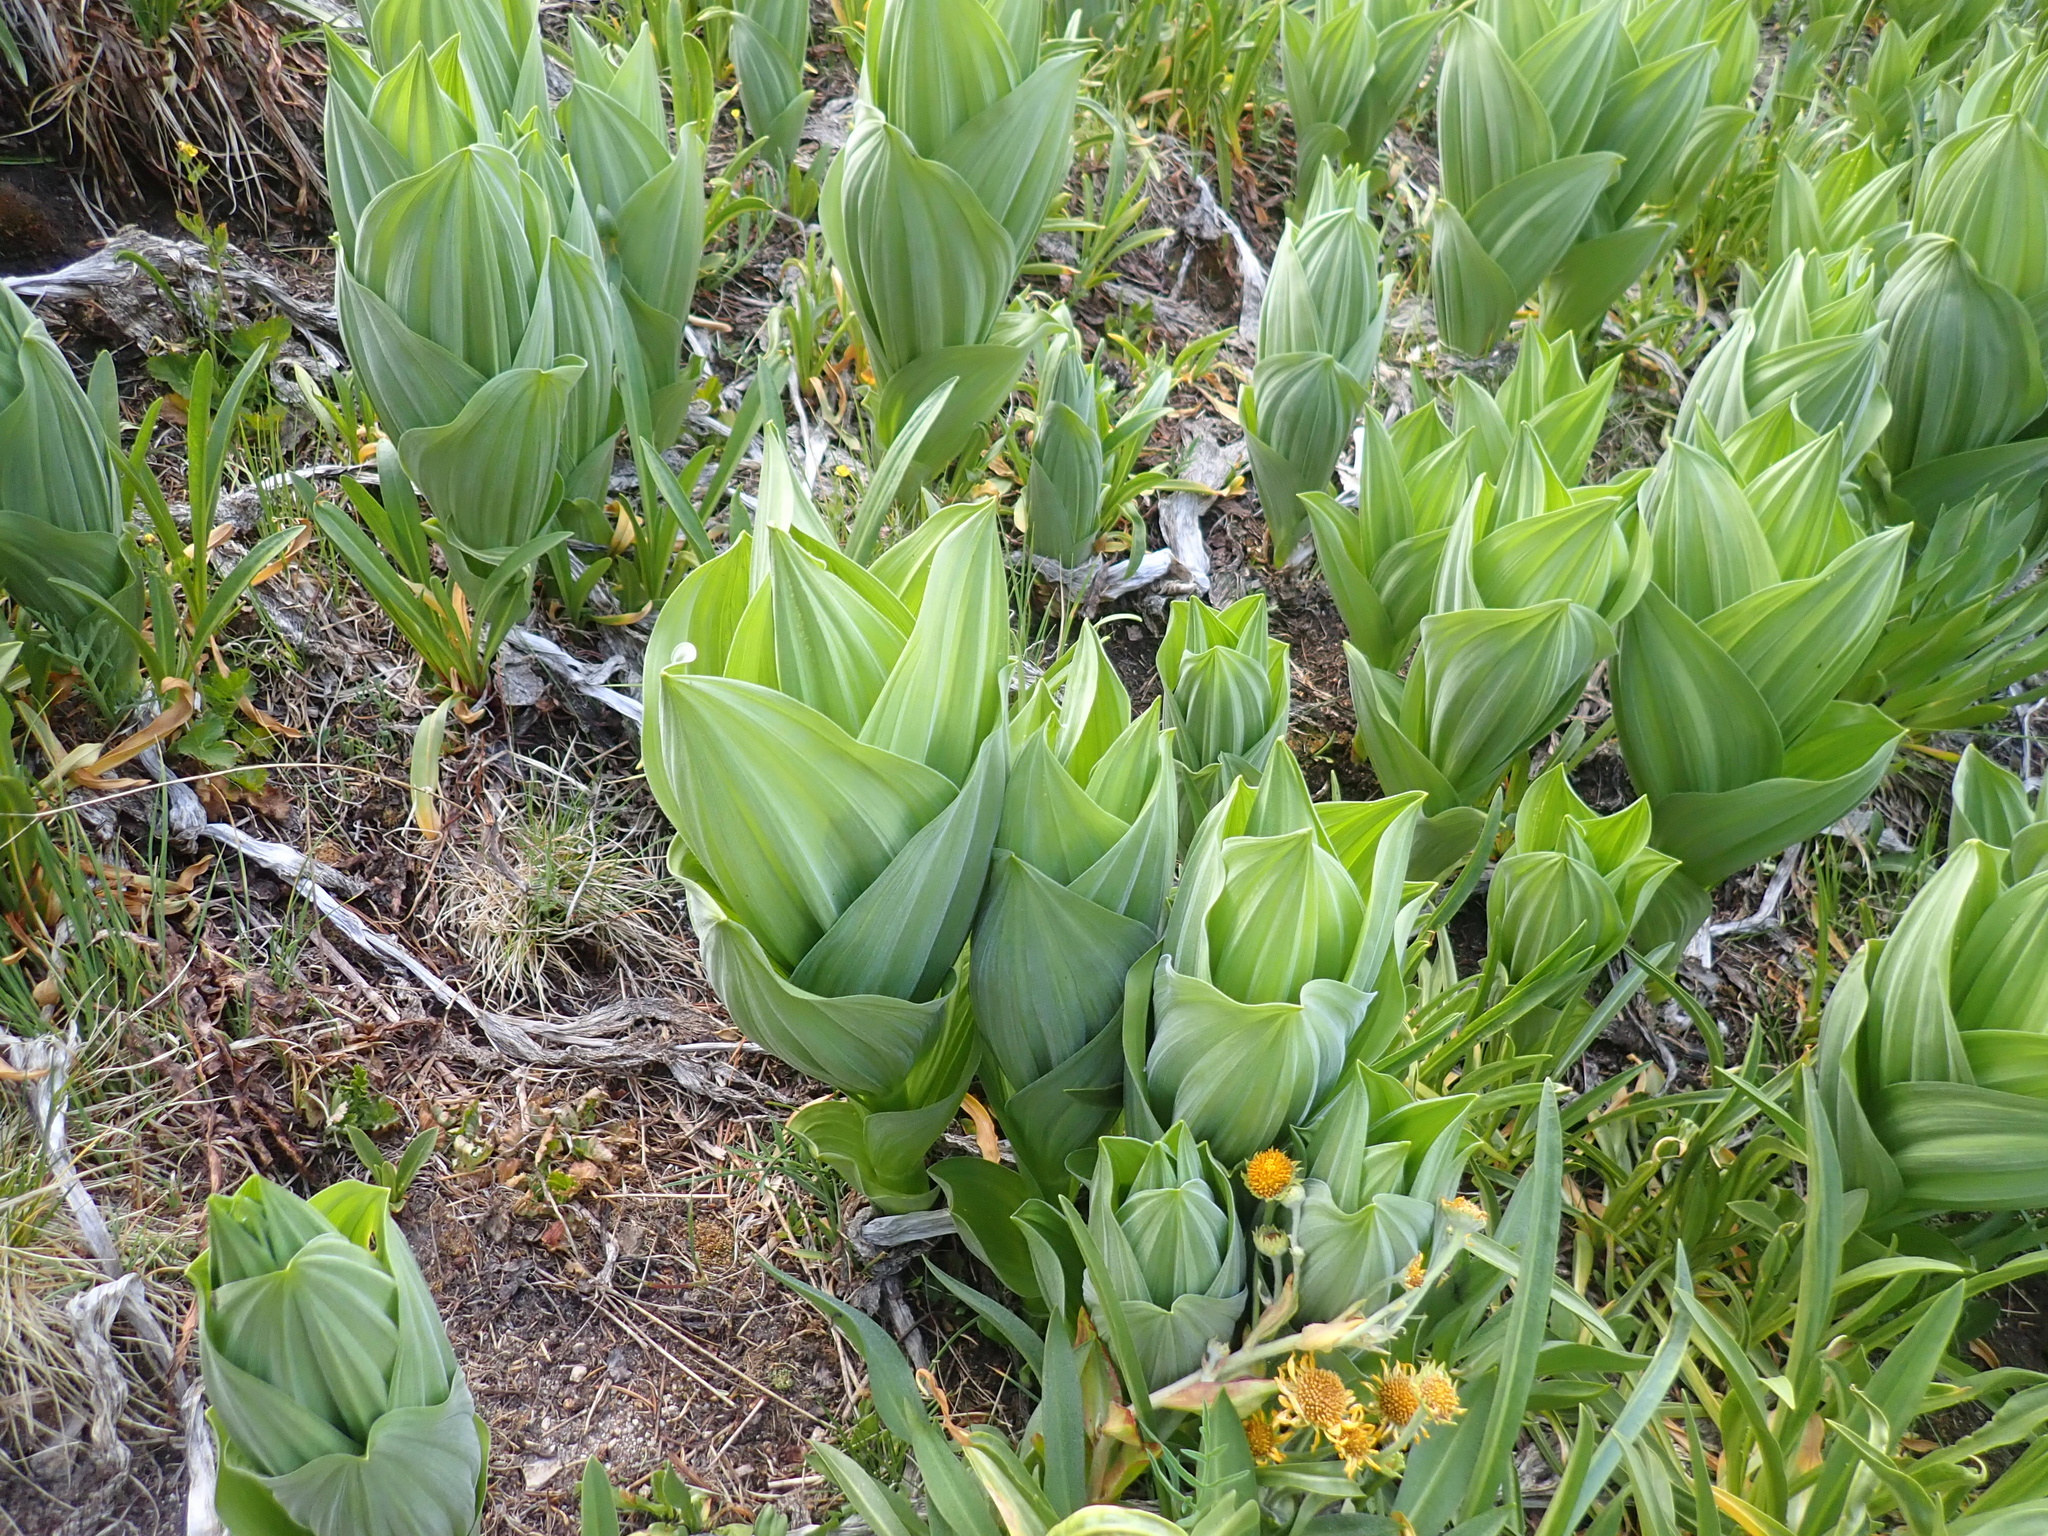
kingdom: Plantae
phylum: Tracheophyta
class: Liliopsida
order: Liliales
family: Melanthiaceae
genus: Veratrum
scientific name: Veratrum californicum
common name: California veratrum
